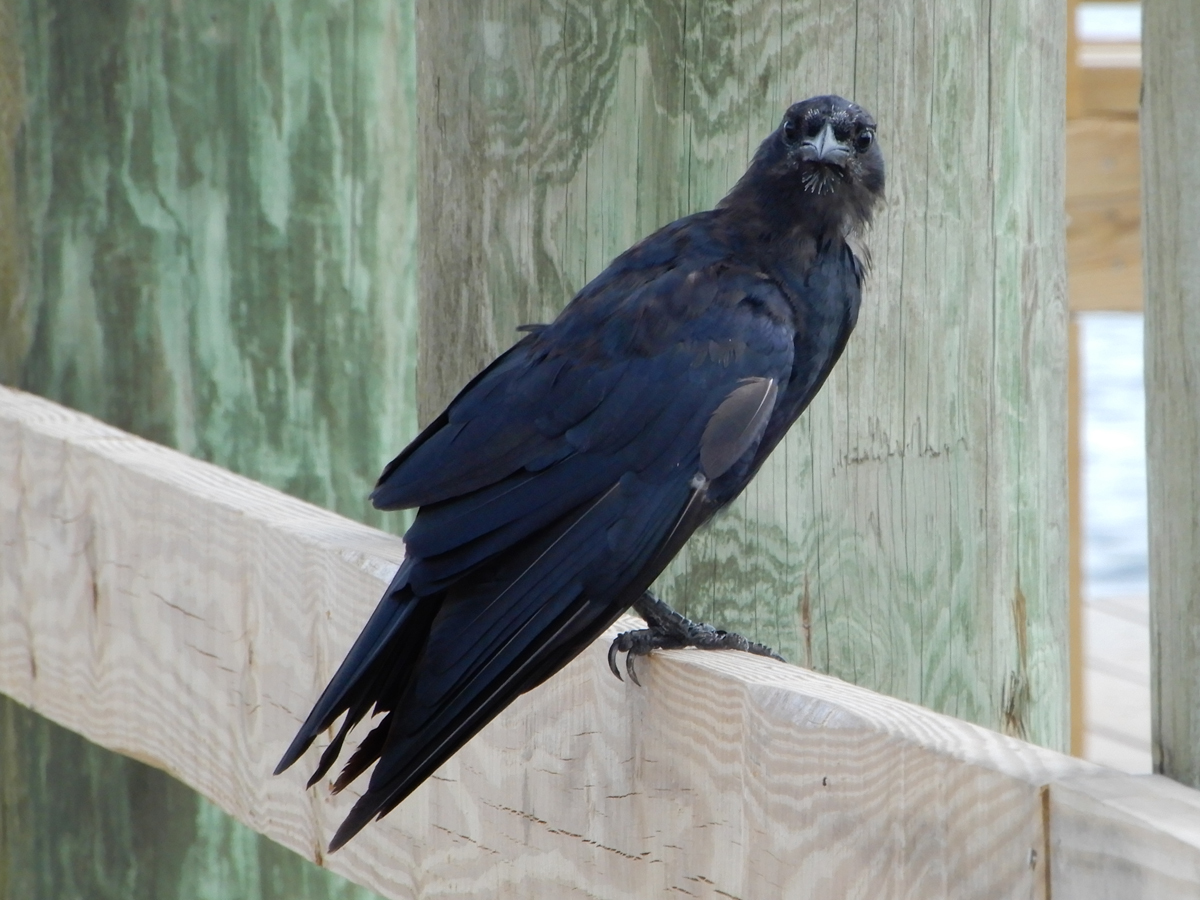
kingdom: Animalia
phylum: Chordata
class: Aves
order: Passeriformes
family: Corvidae
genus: Corvus
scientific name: Corvus ossifragus
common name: Fish crow
